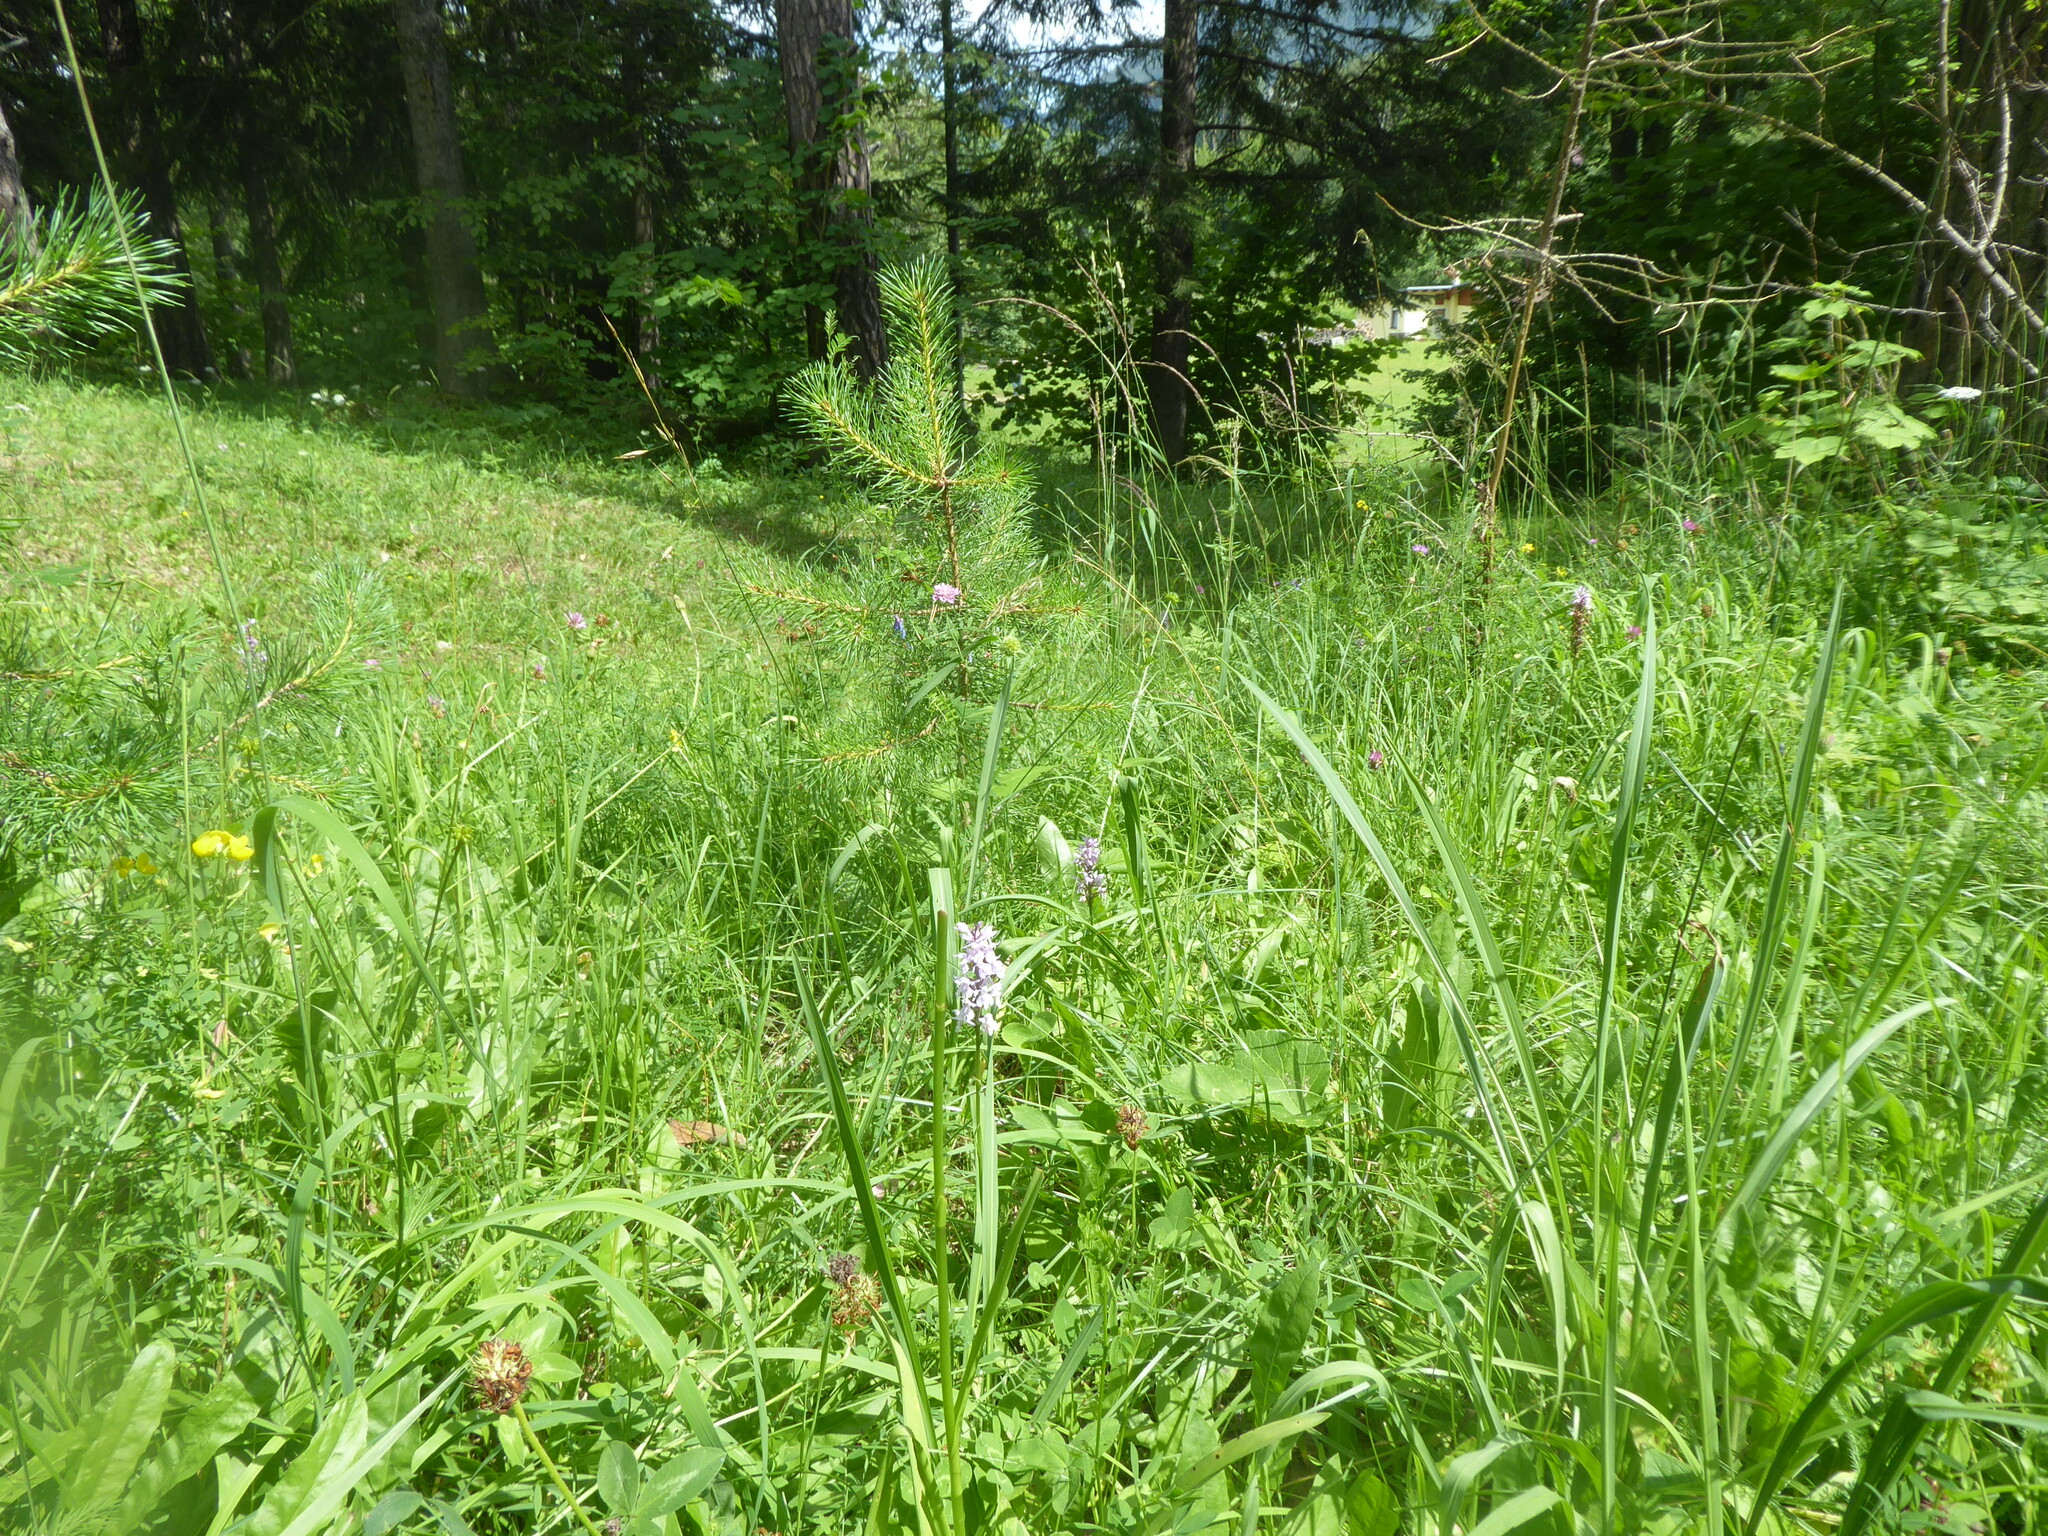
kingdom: Plantae
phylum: Tracheophyta
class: Liliopsida
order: Asparagales
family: Orchidaceae
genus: Dactylorhiza
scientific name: Dactylorhiza maculata
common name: Heath spotted-orchid
